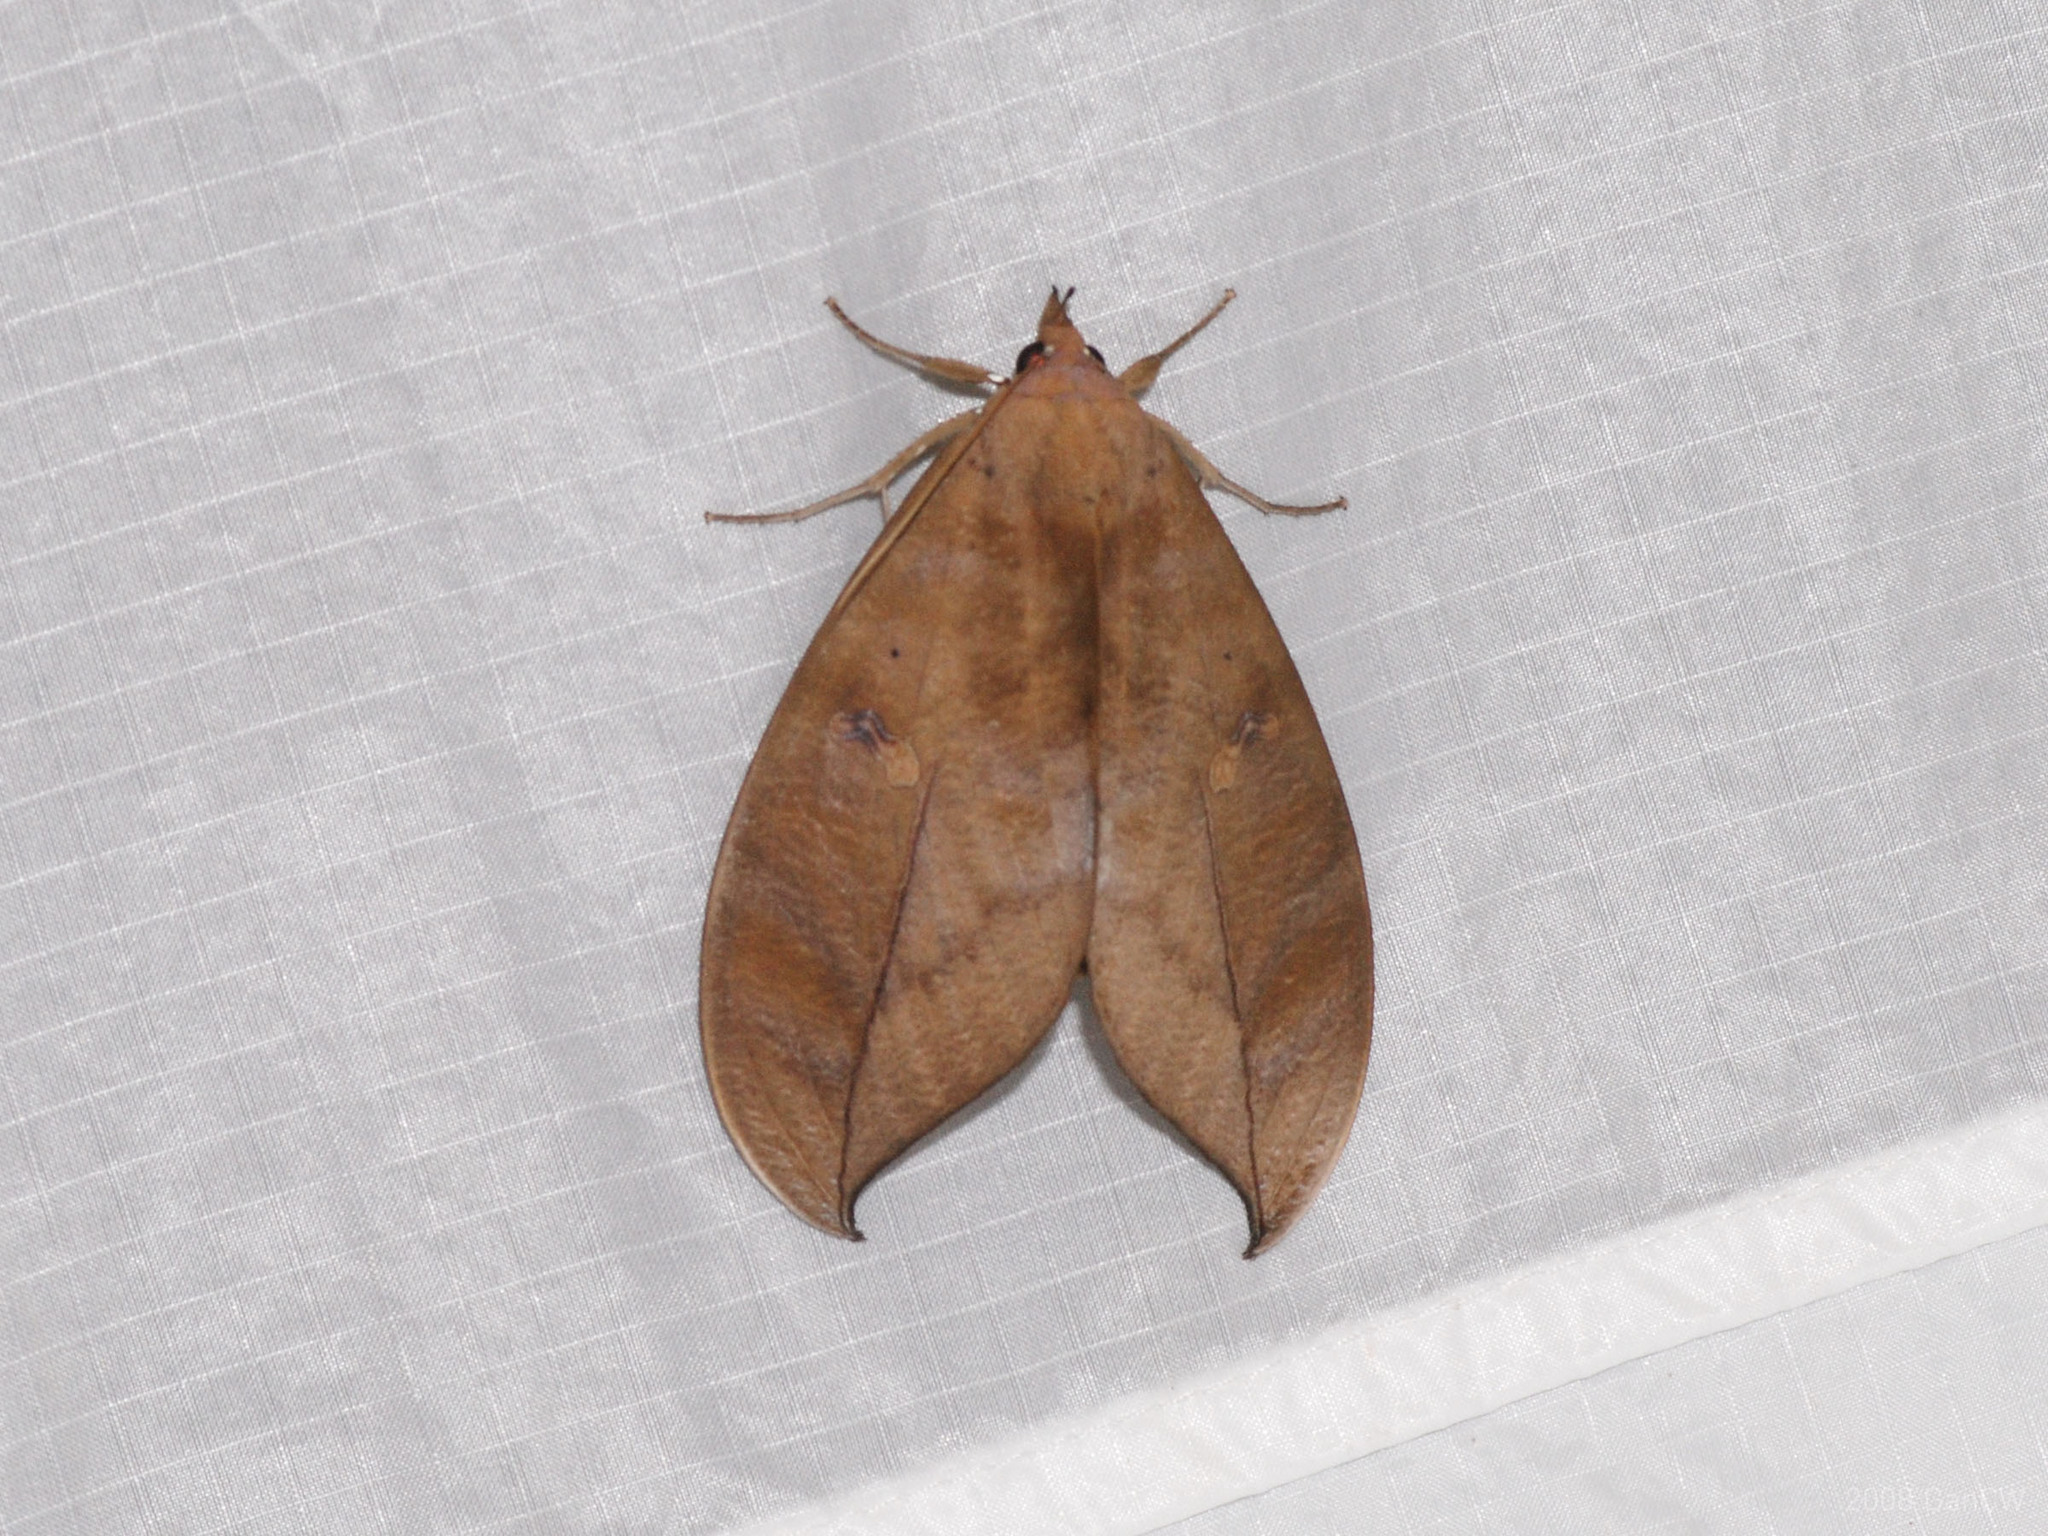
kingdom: Animalia
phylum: Arthropoda
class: Insecta
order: Lepidoptera
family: Erebidae
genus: Phyllodes
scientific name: Phyllodes eyndhovii
